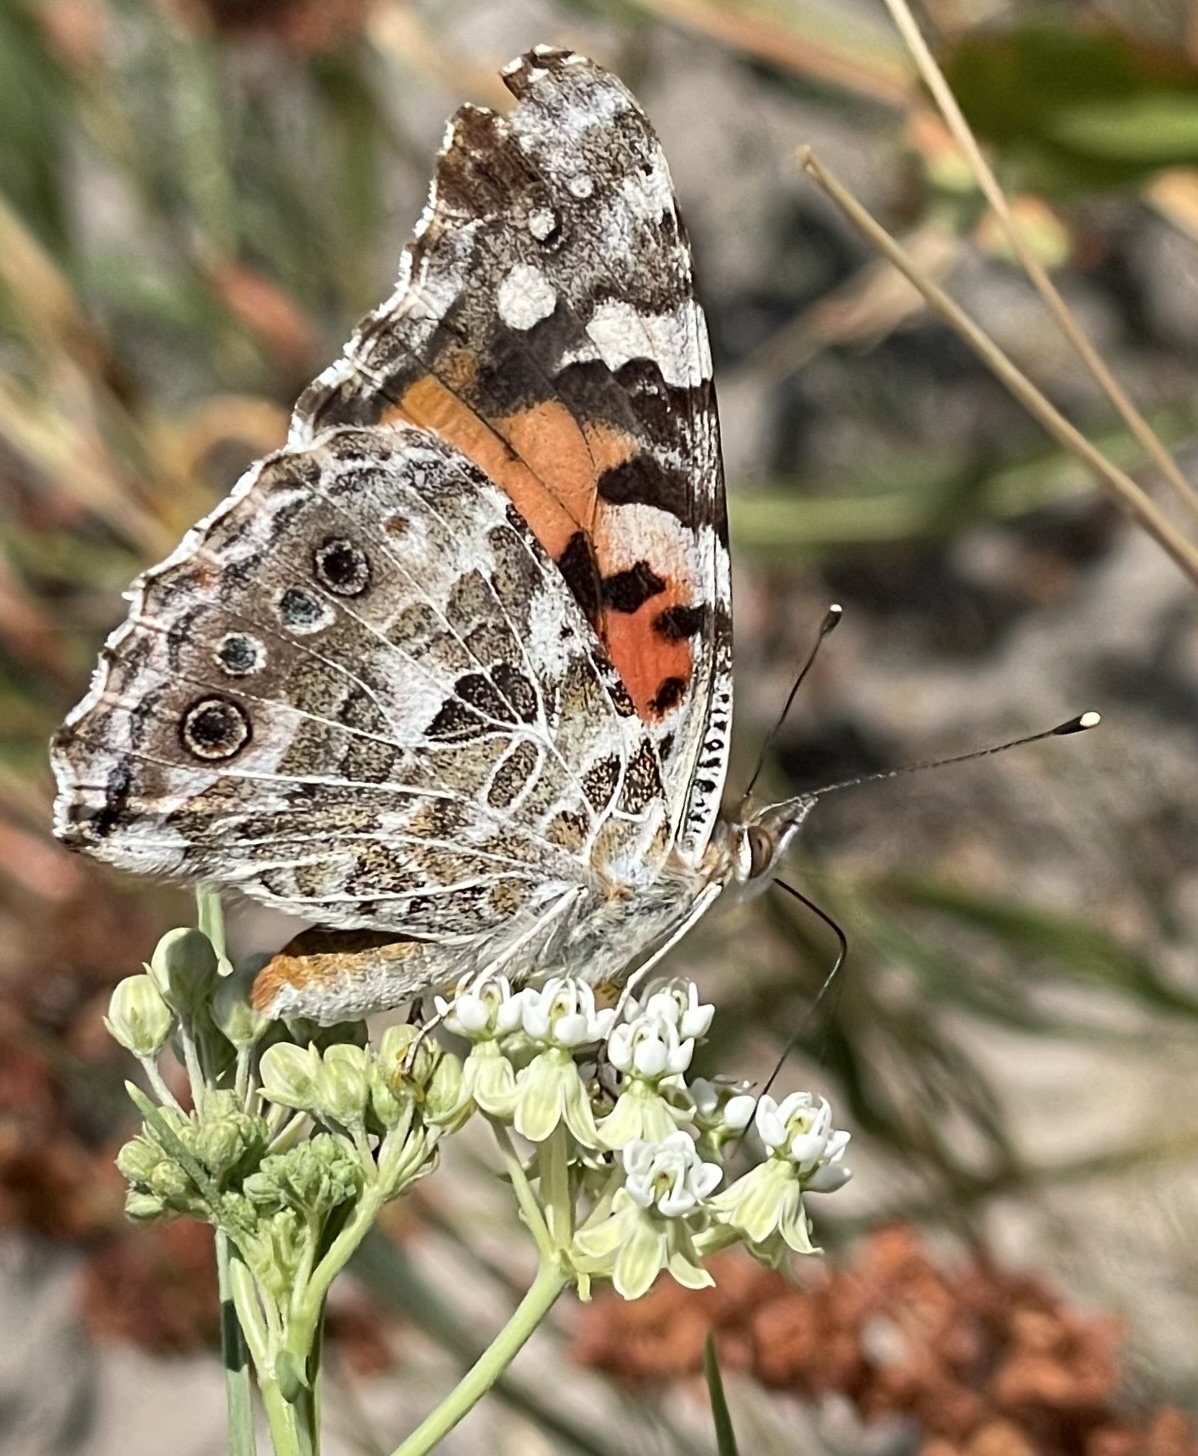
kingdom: Animalia
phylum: Arthropoda
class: Insecta
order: Lepidoptera
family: Nymphalidae
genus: Vanessa
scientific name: Vanessa cardui
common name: Painted lady
